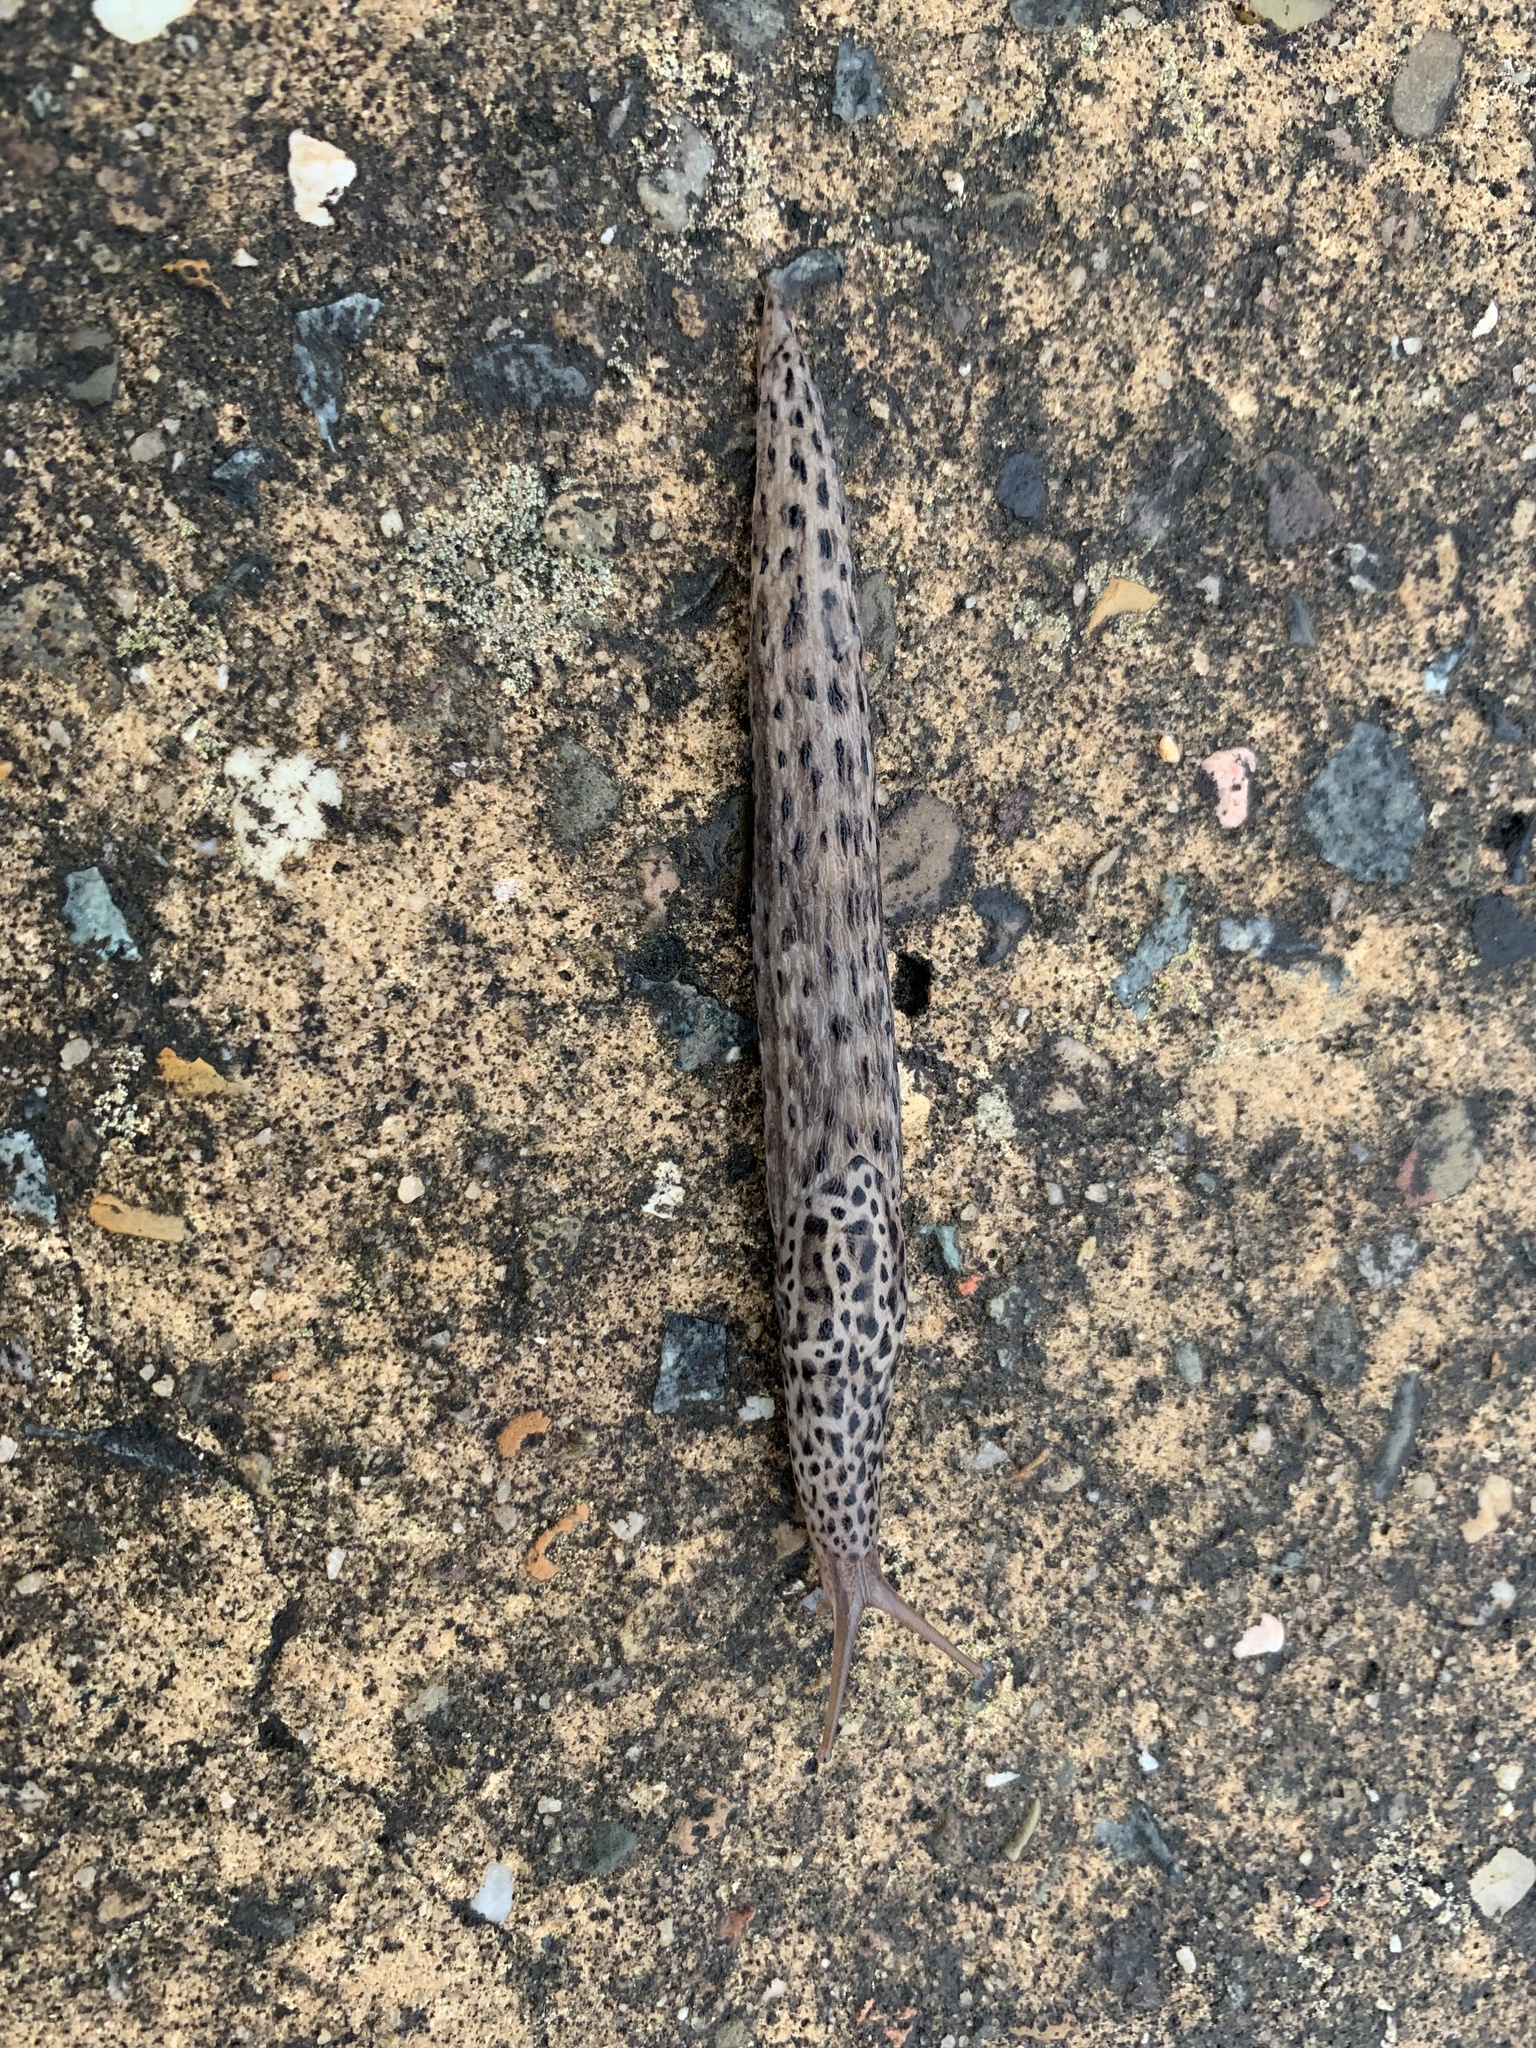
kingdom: Animalia
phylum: Mollusca
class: Gastropoda
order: Stylommatophora
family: Limacidae
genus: Limax
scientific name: Limax maximus
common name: Great grey slug
